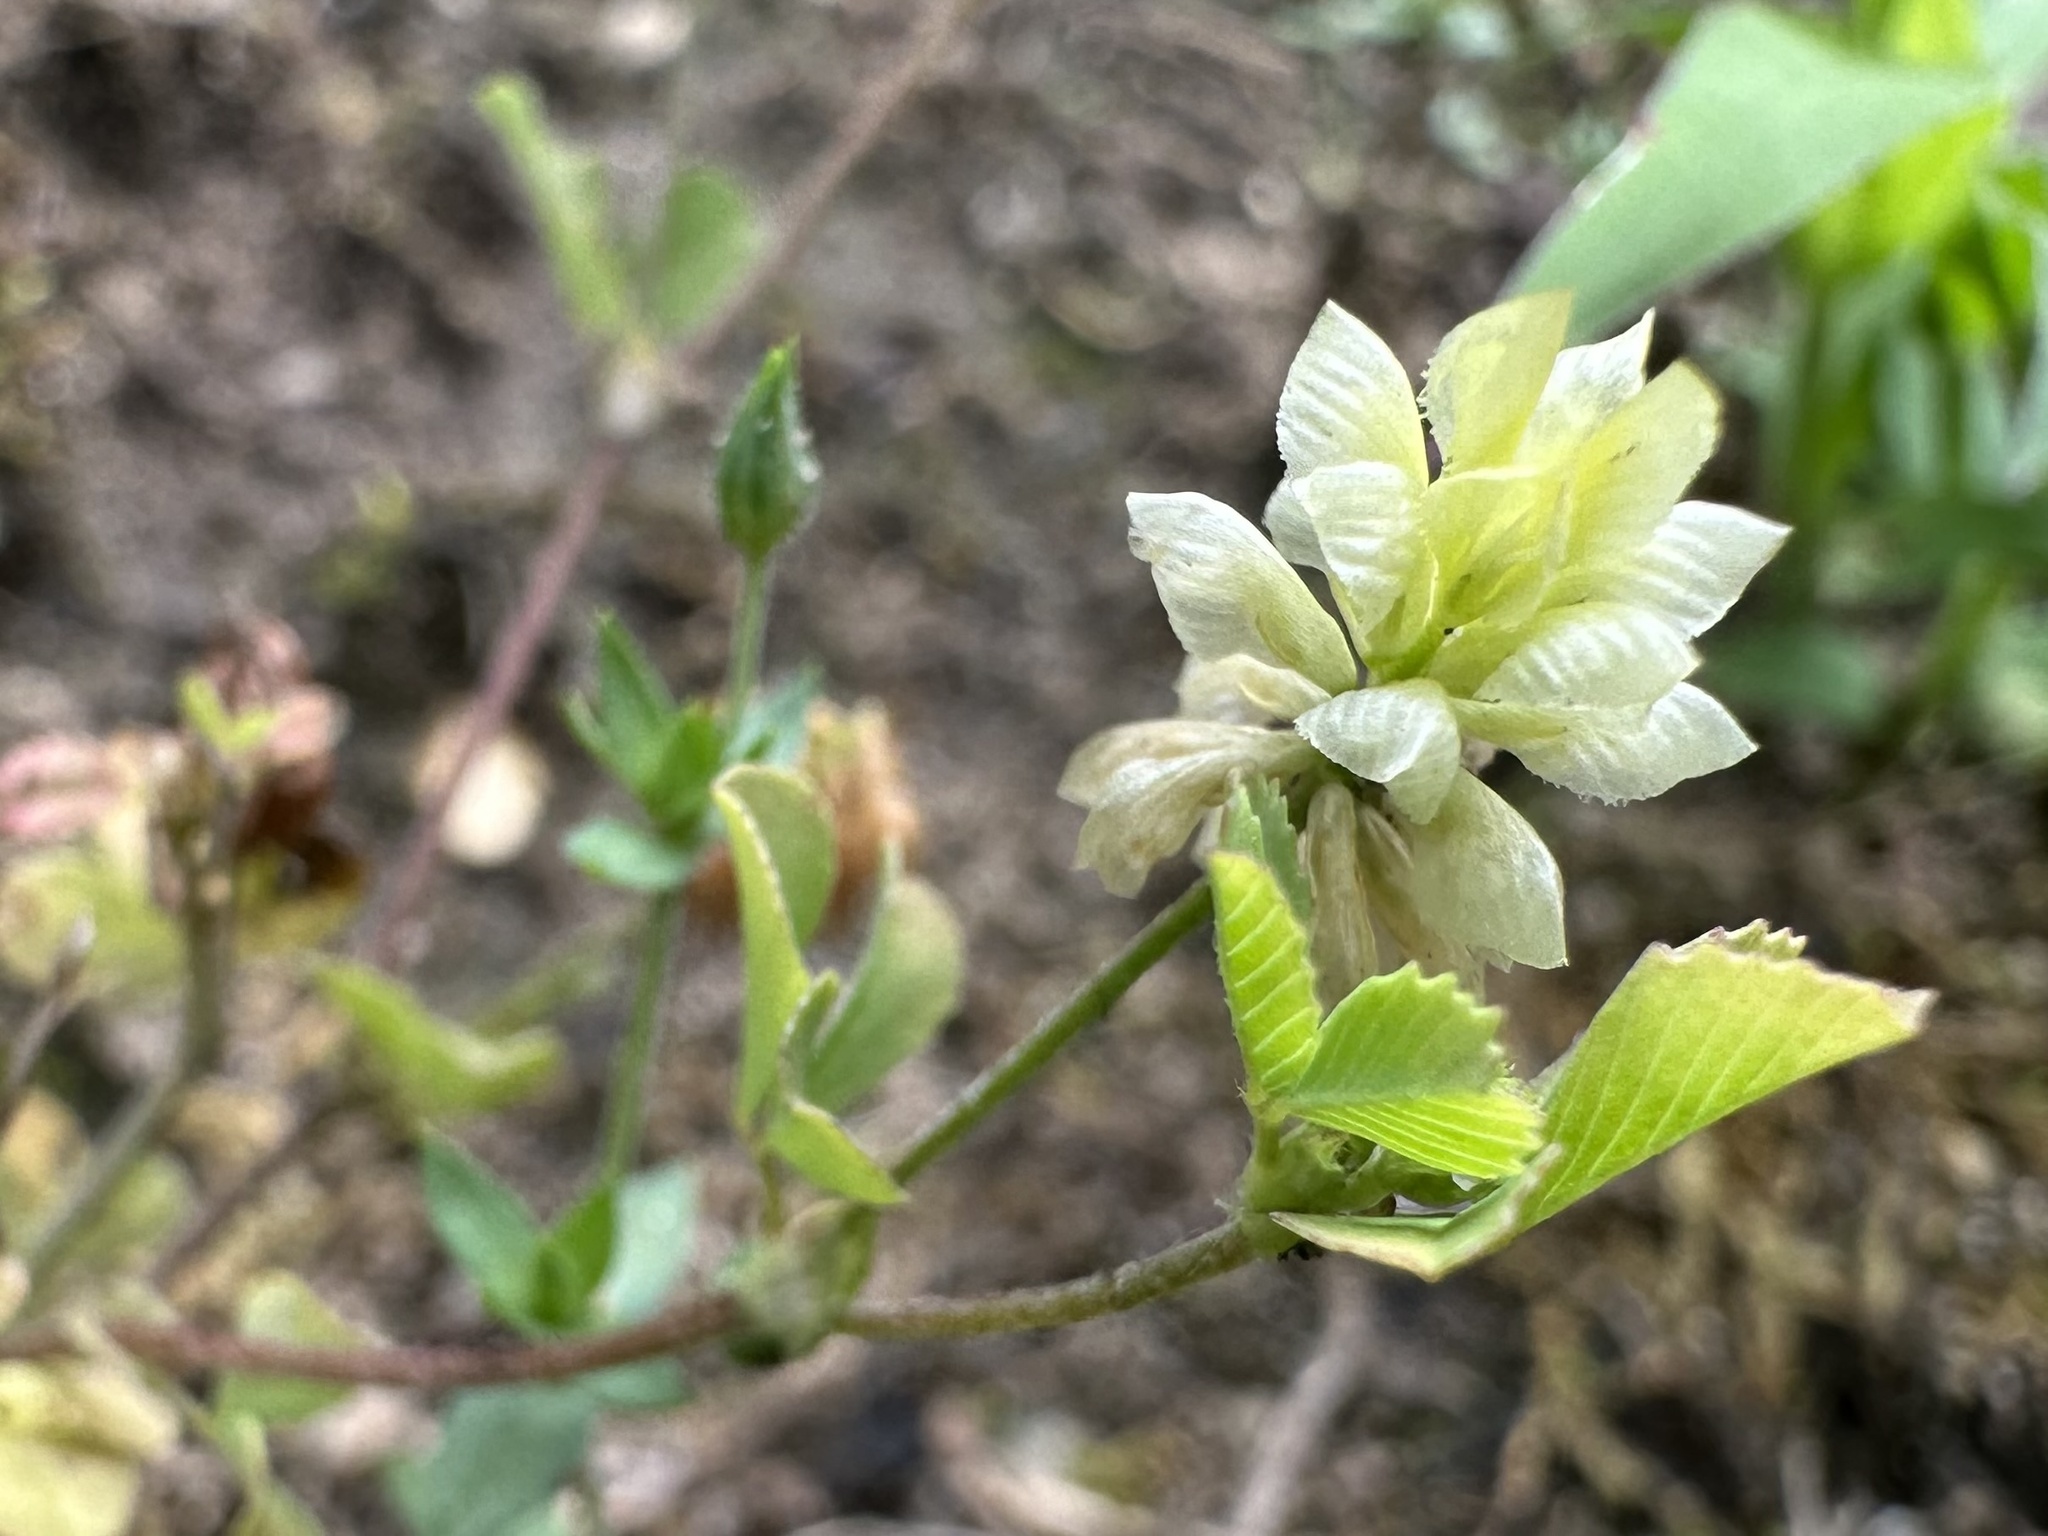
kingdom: Plantae
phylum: Tracheophyta
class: Magnoliopsida
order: Fabales
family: Fabaceae
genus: Trifolium
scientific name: Trifolium campestre
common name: Field clover
